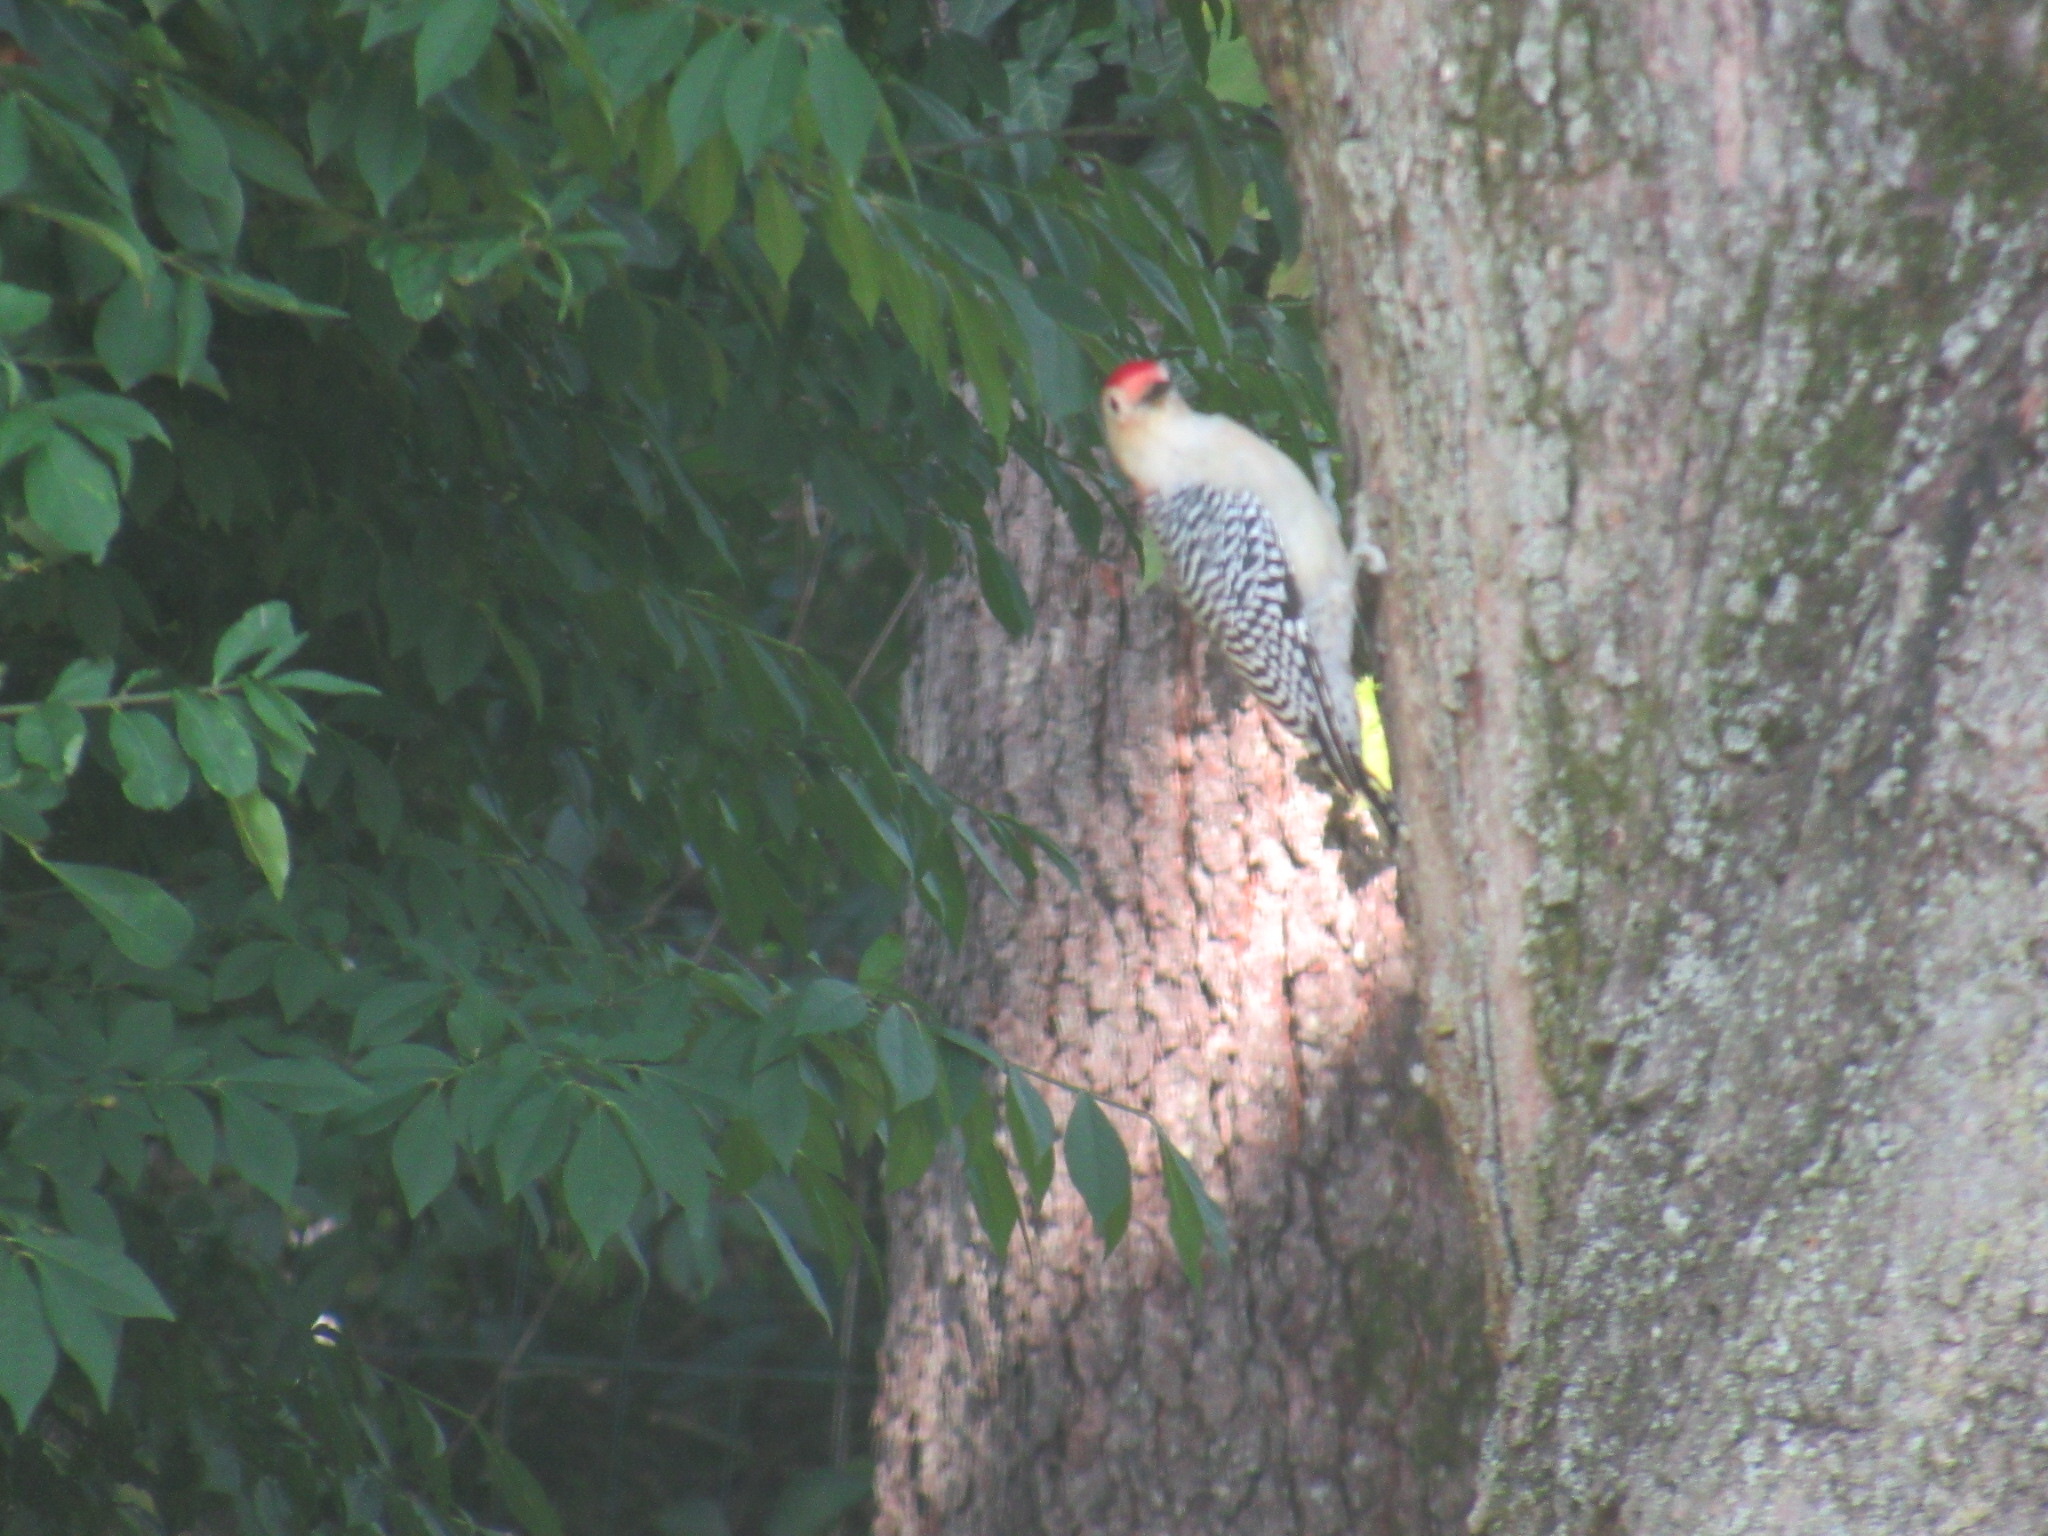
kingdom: Animalia
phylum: Chordata
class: Aves
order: Piciformes
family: Picidae
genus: Melanerpes
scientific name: Melanerpes carolinus
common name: Red-bellied woodpecker
